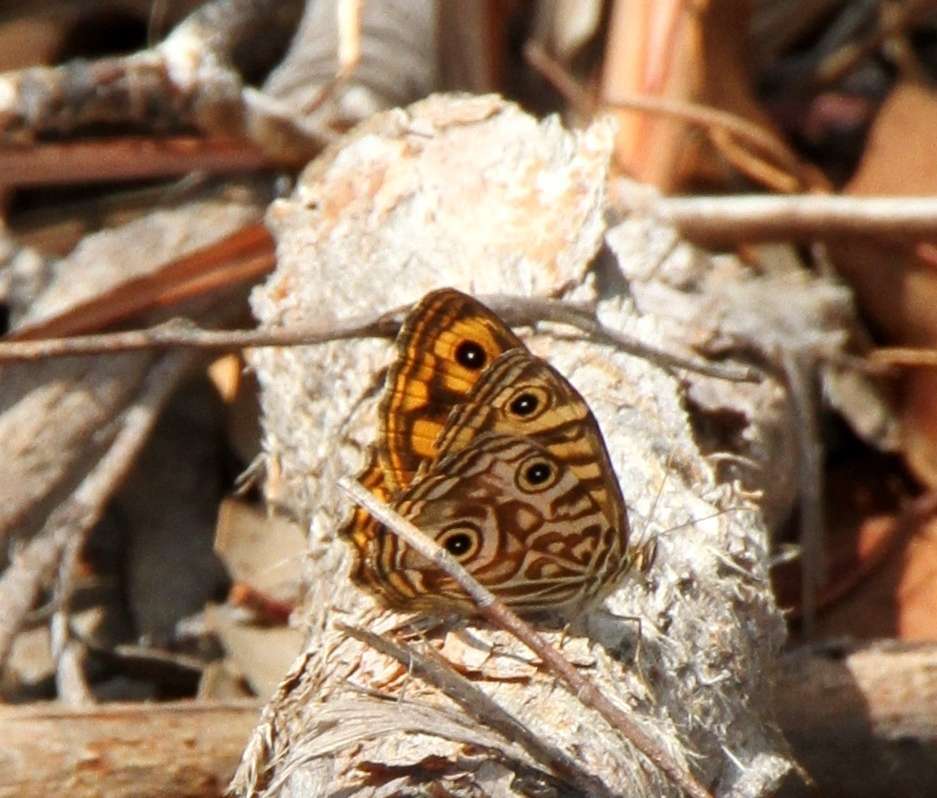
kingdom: Animalia
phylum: Arthropoda
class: Insecta
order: Lepidoptera
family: Nymphalidae
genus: Geitoneura
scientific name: Geitoneura acantha
